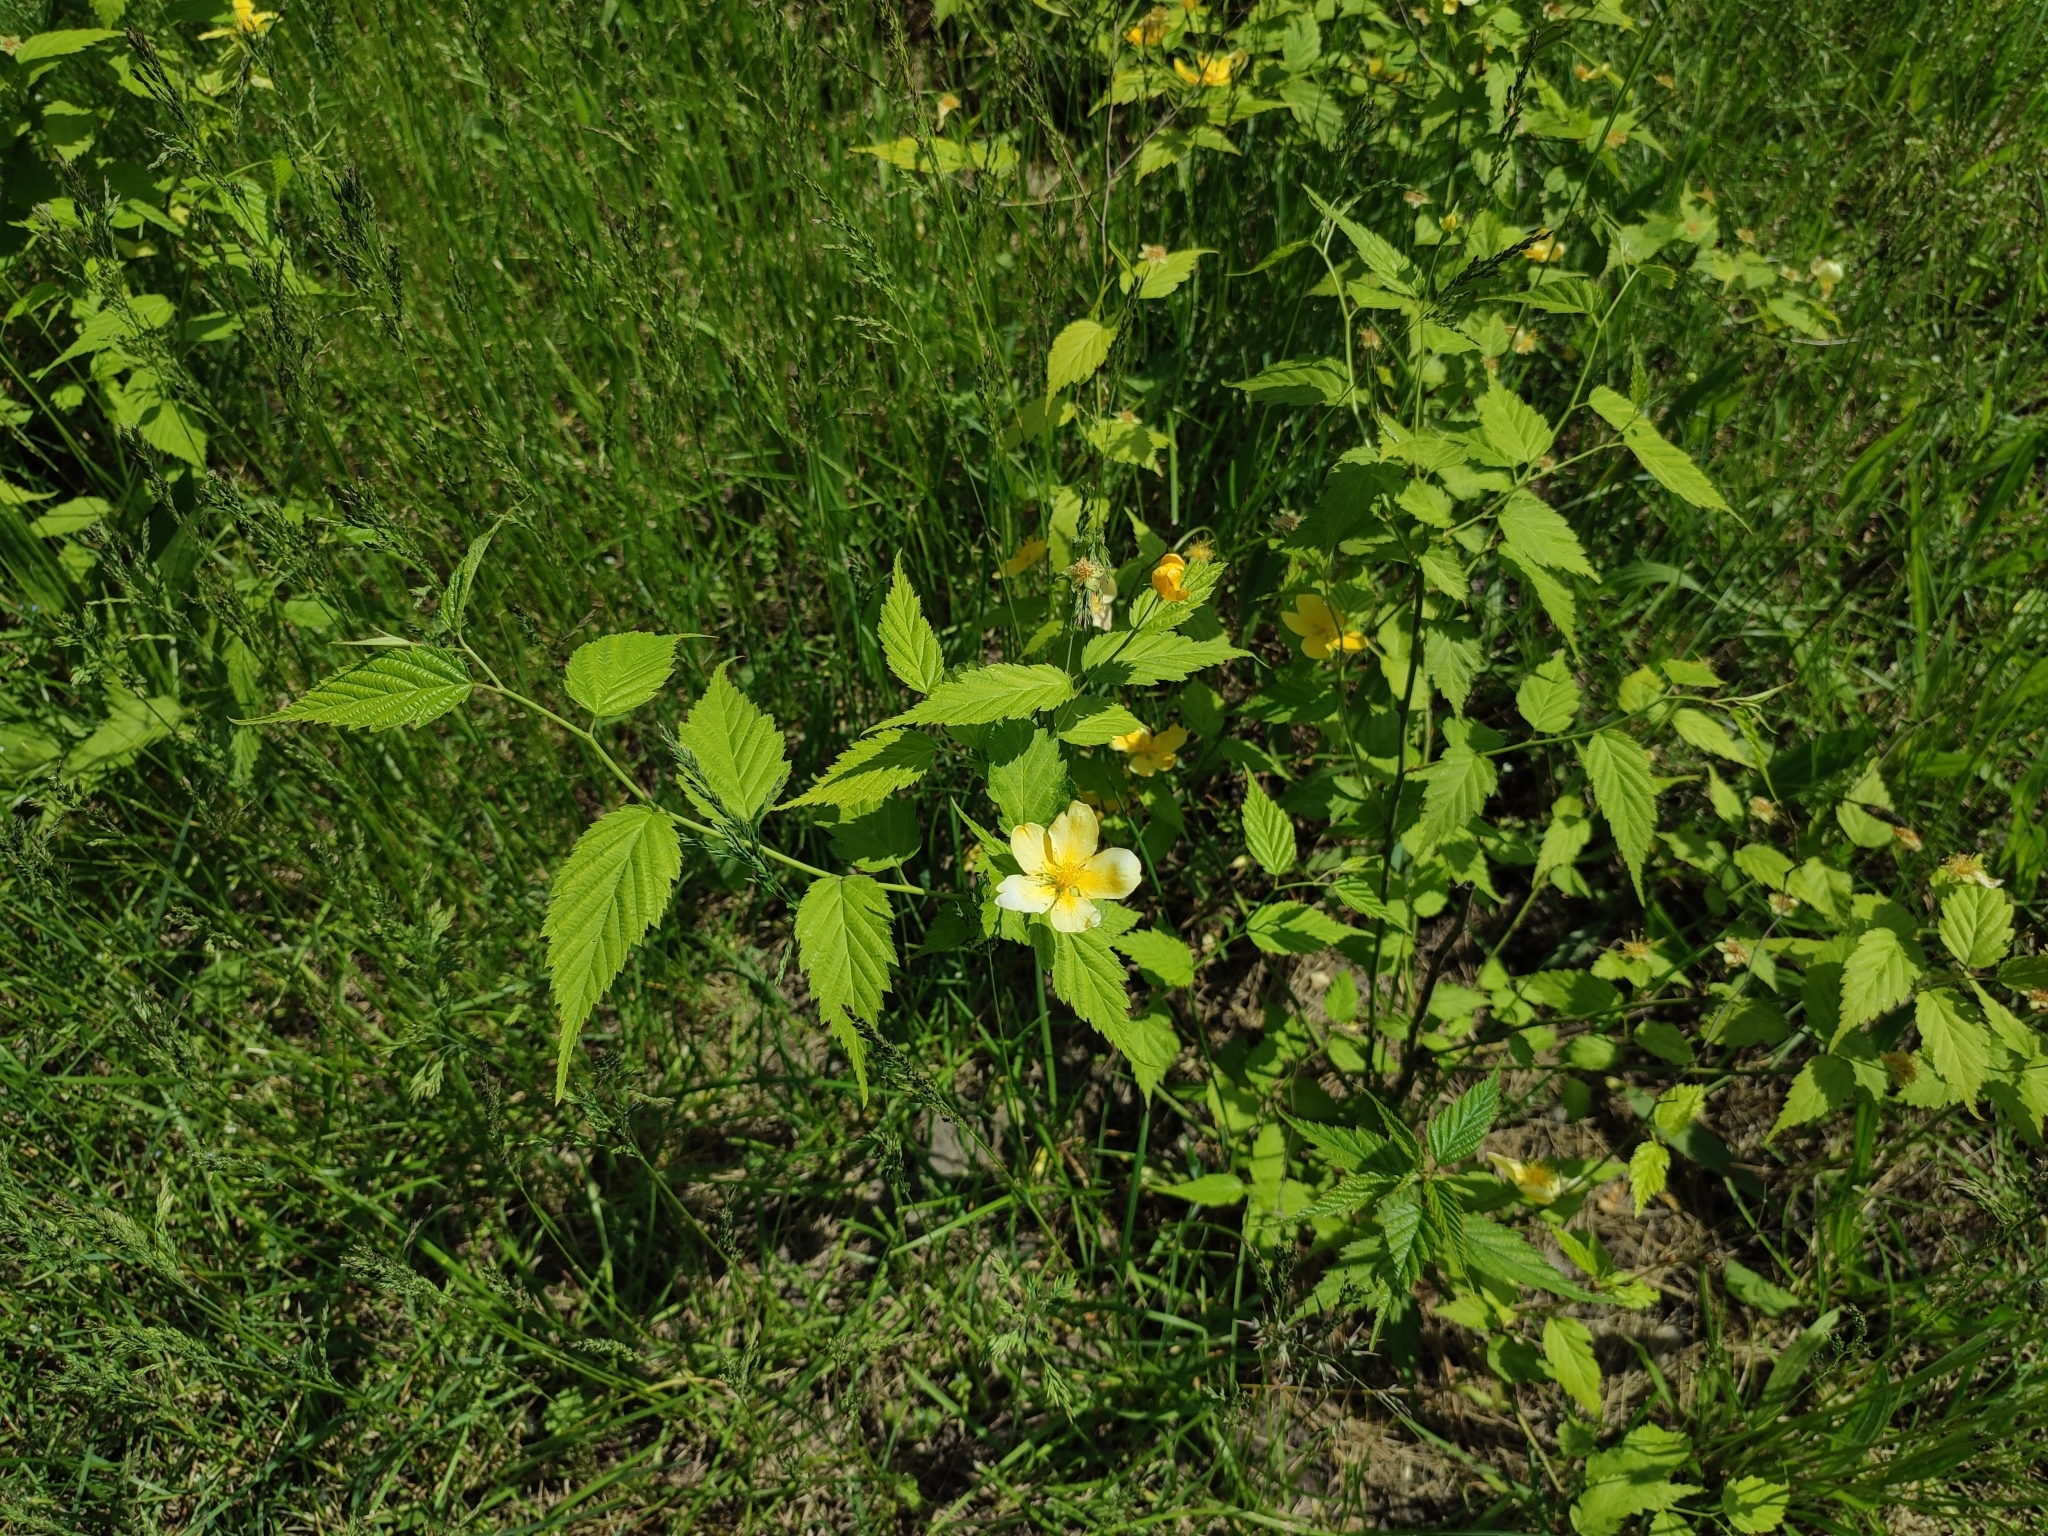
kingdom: Plantae
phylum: Tracheophyta
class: Magnoliopsida
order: Rosales
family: Rosaceae
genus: Kerria
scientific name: Kerria japonica
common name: Japanese kerria
